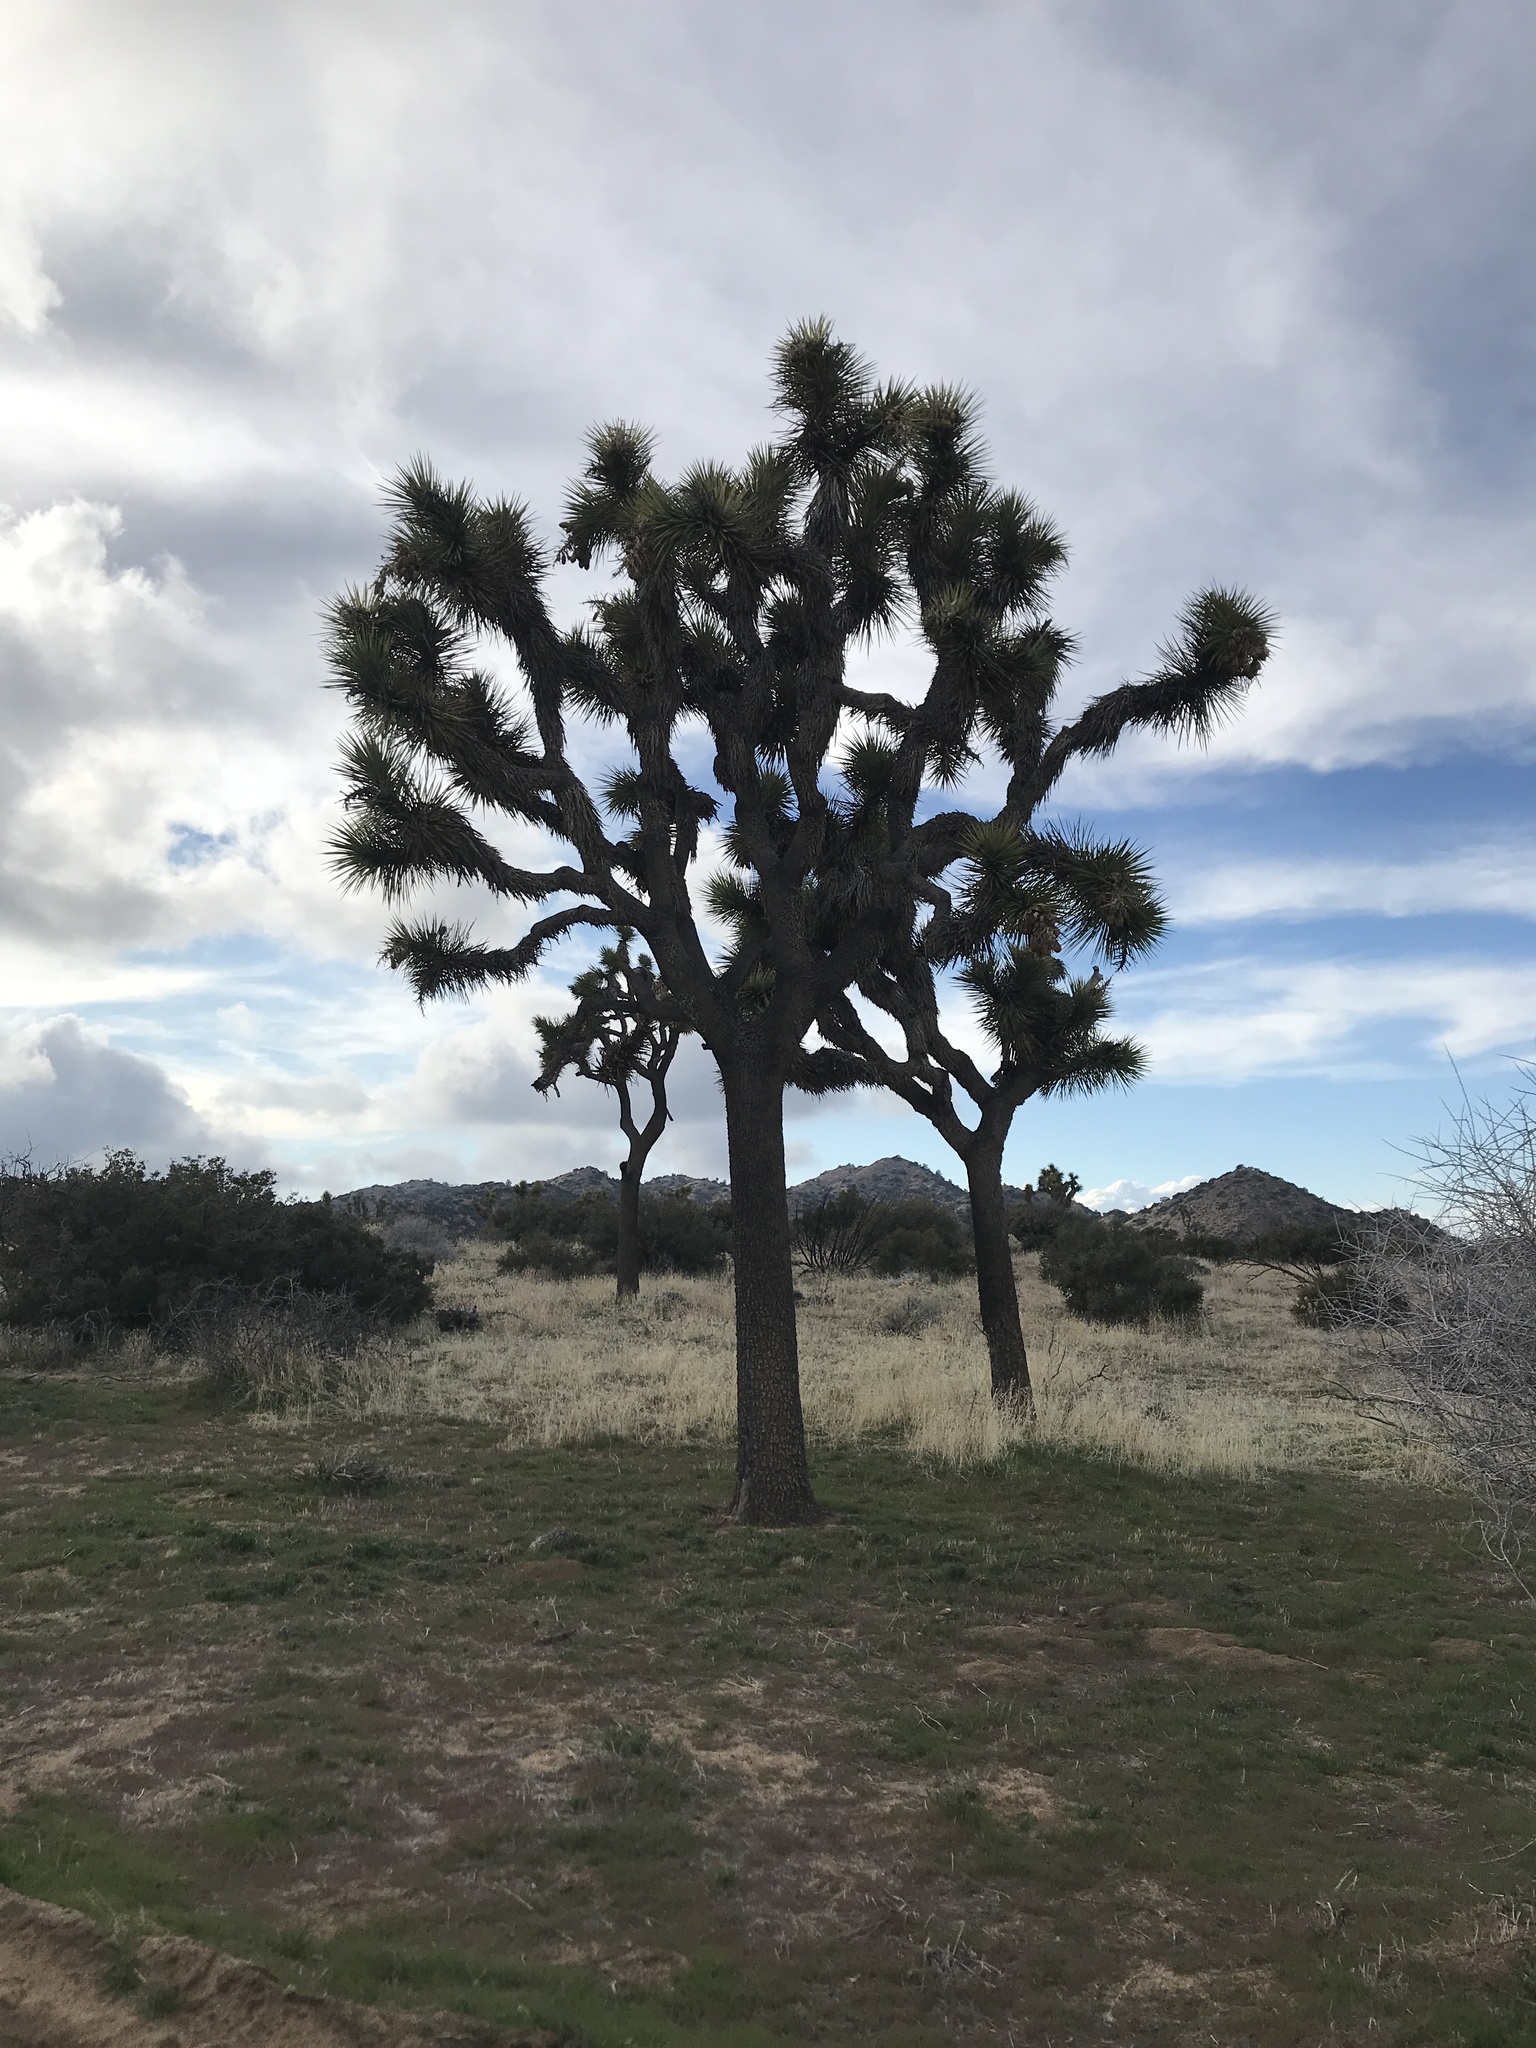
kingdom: Plantae
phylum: Tracheophyta
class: Liliopsida
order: Asparagales
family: Asparagaceae
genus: Yucca
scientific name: Yucca brevifolia
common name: Joshua tree
